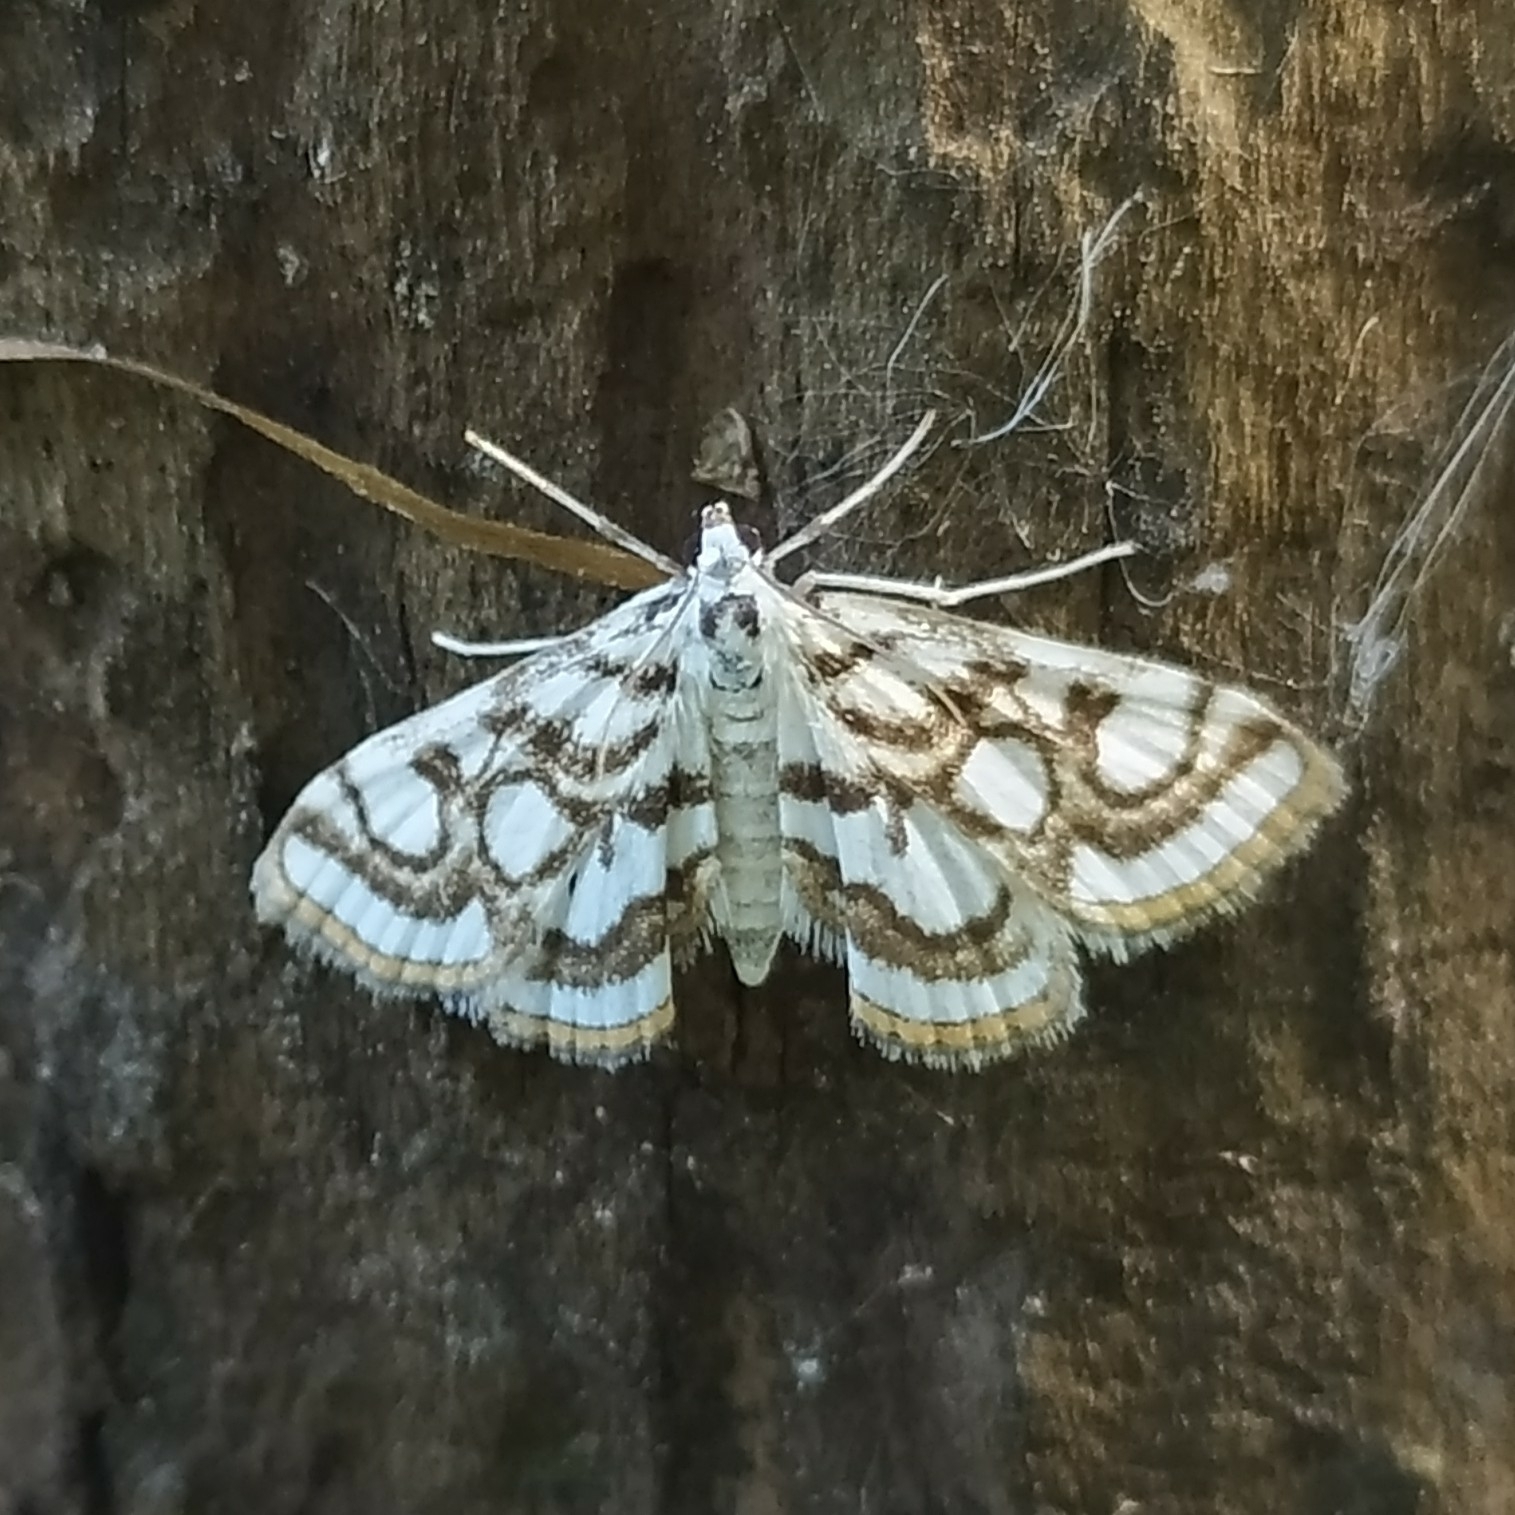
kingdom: Animalia
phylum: Arthropoda
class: Insecta
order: Lepidoptera
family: Crambidae
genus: Nymphula
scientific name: Nymphula nitidulata
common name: Beautiful china mark
